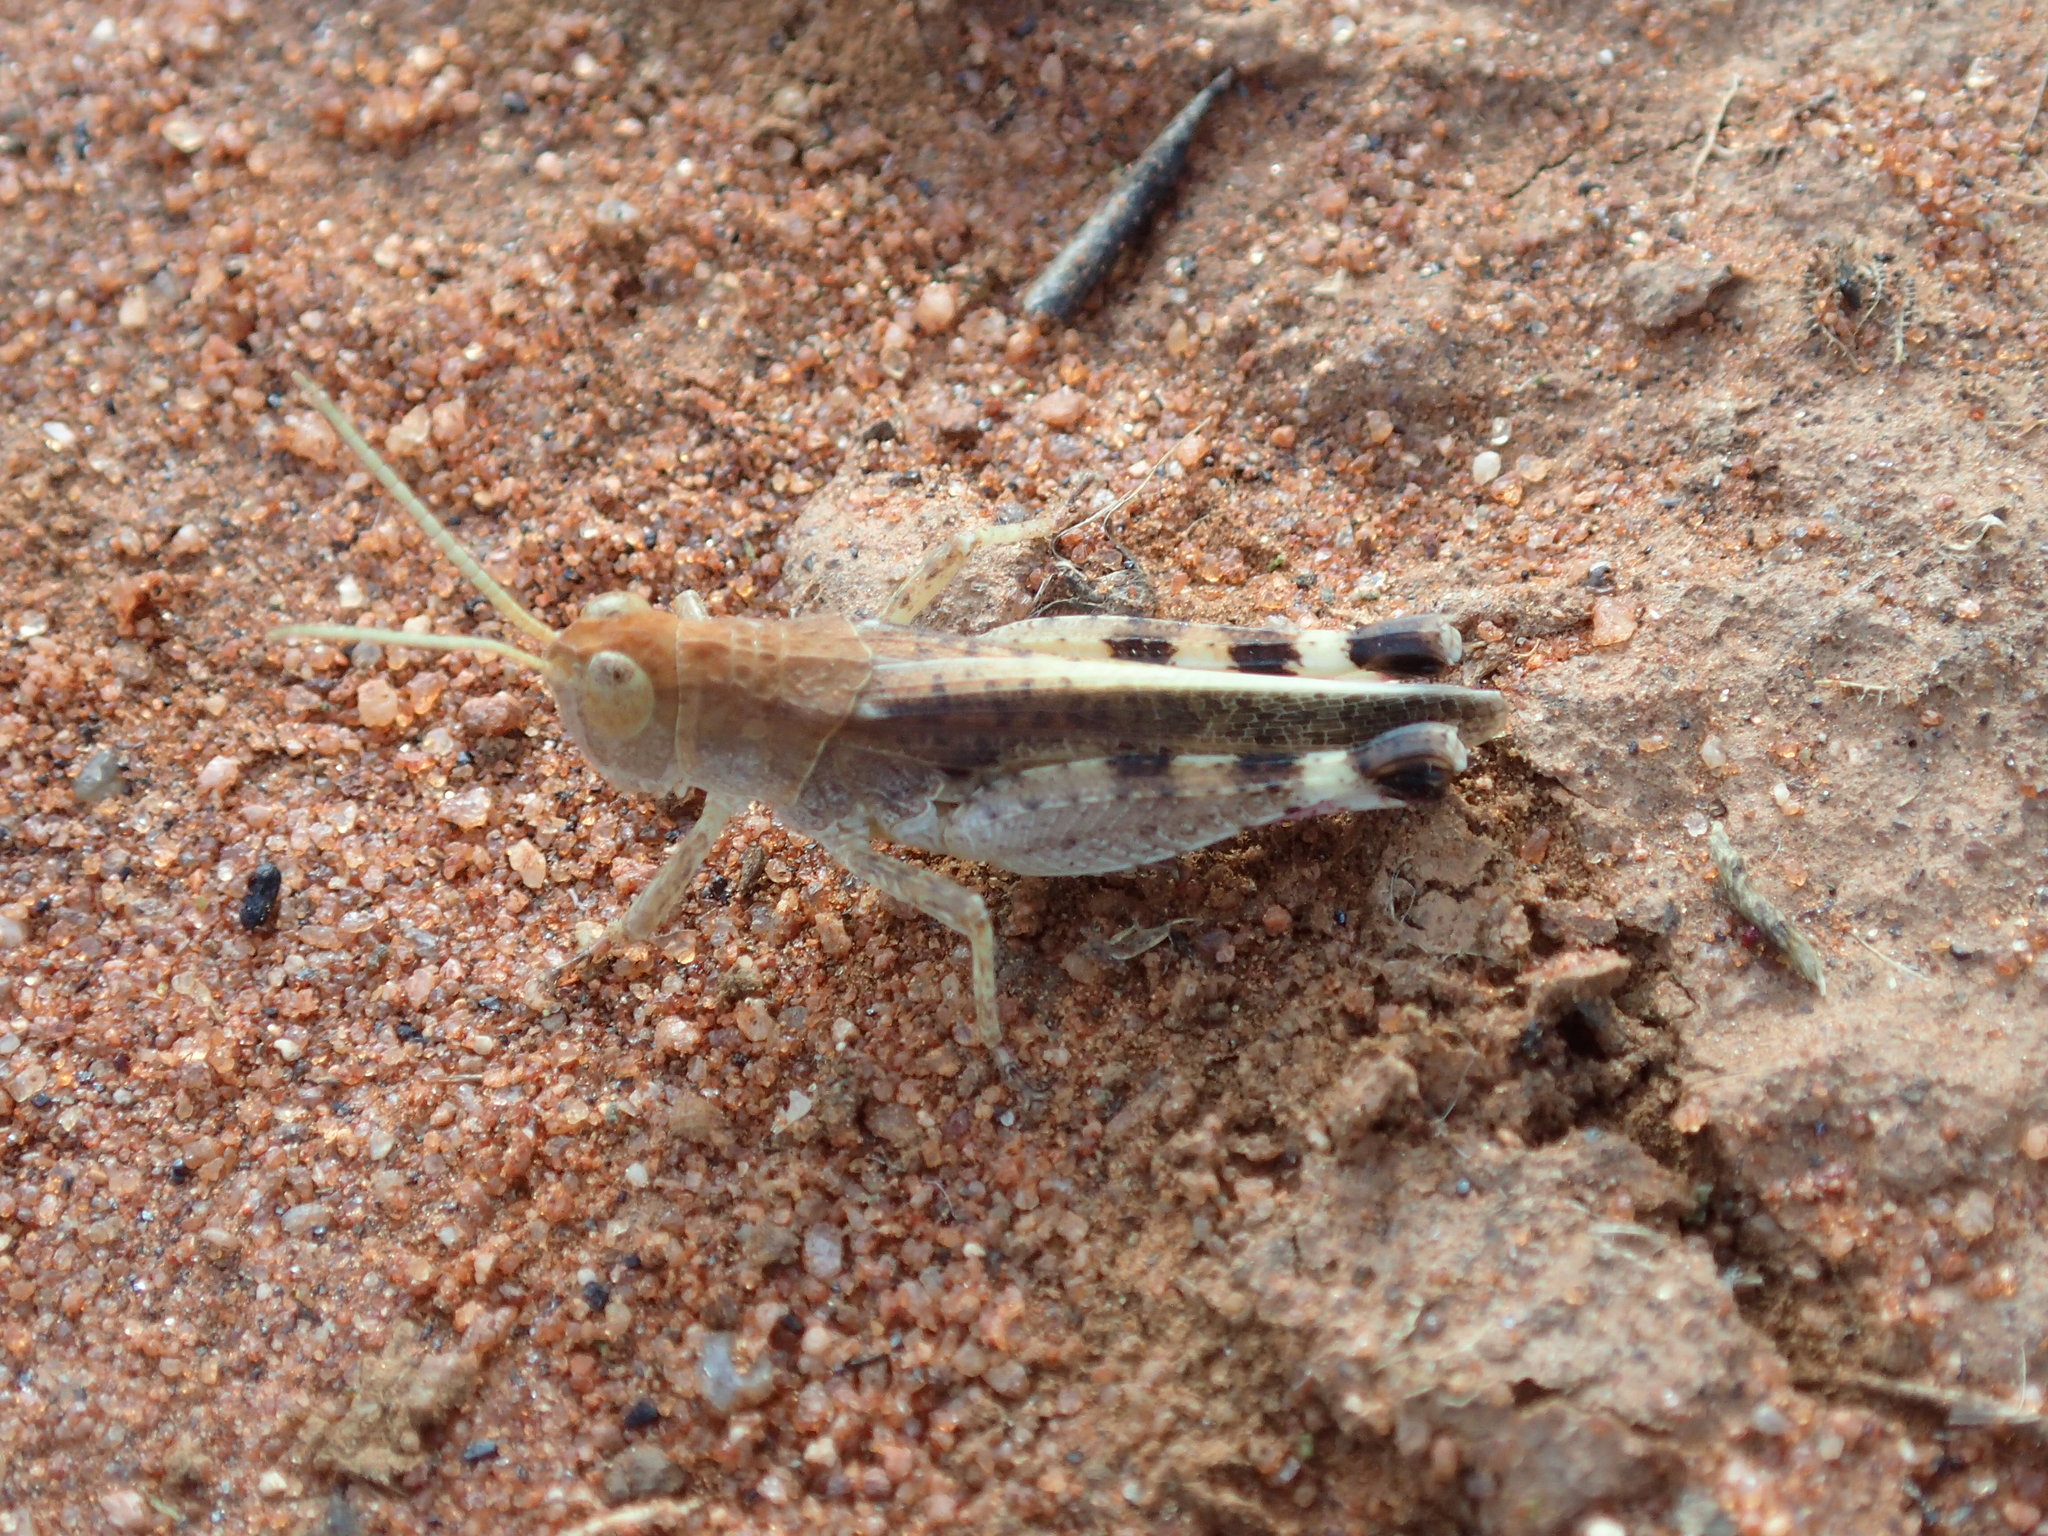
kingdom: Animalia
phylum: Arthropoda
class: Insecta
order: Orthoptera
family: Acrididae
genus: Desertaria
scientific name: Desertaria lepida
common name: Ungee-gungee
